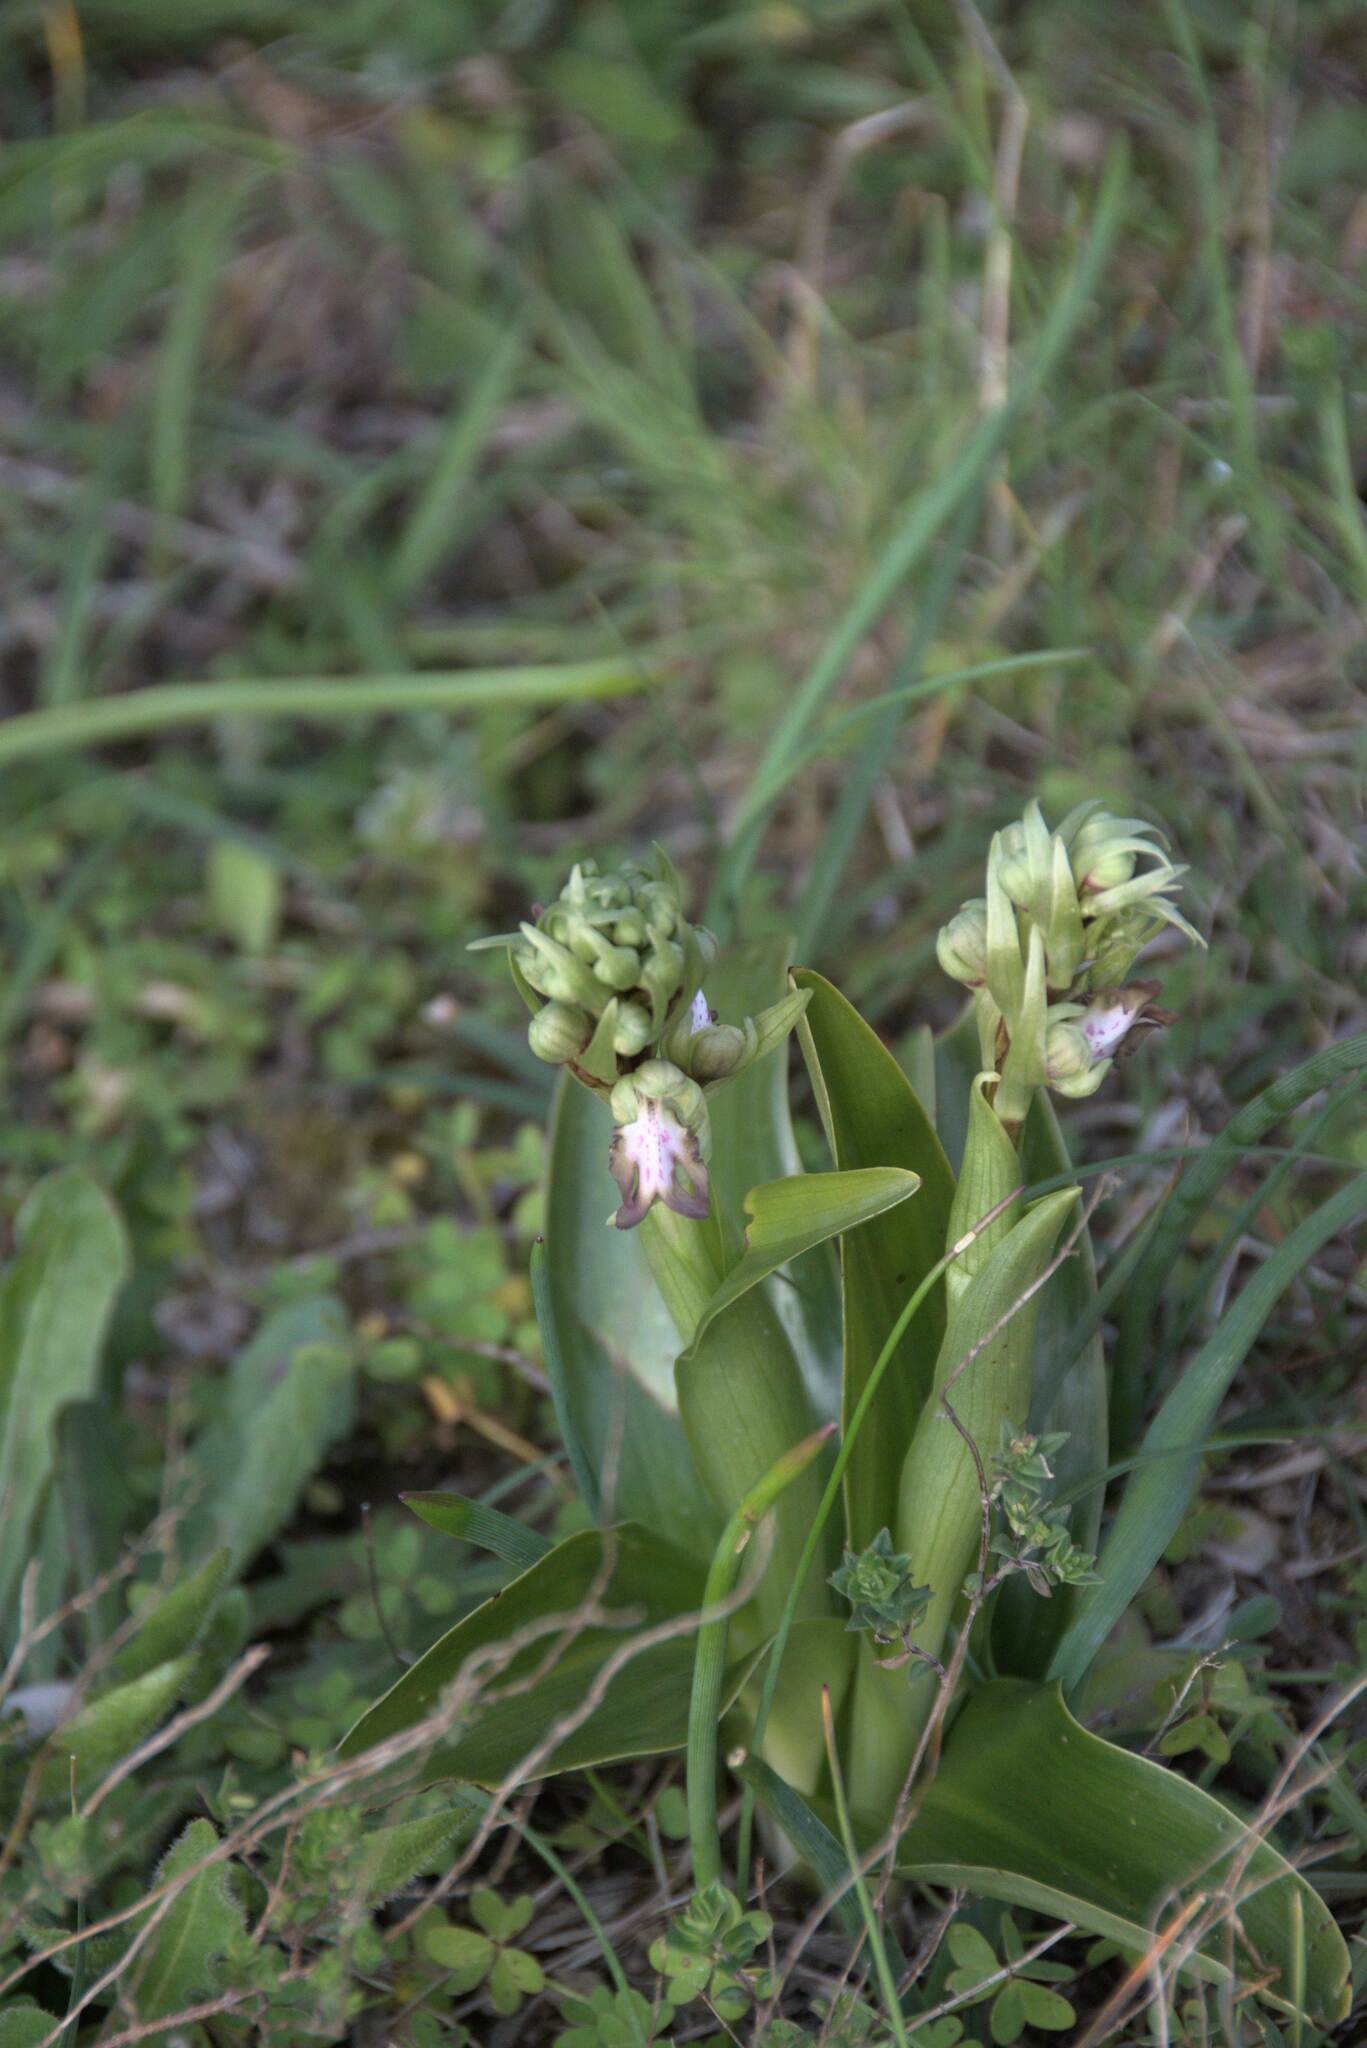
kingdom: Plantae
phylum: Tracheophyta
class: Liliopsida
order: Asparagales
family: Orchidaceae
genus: Himantoglossum
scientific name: Himantoglossum robertianum
